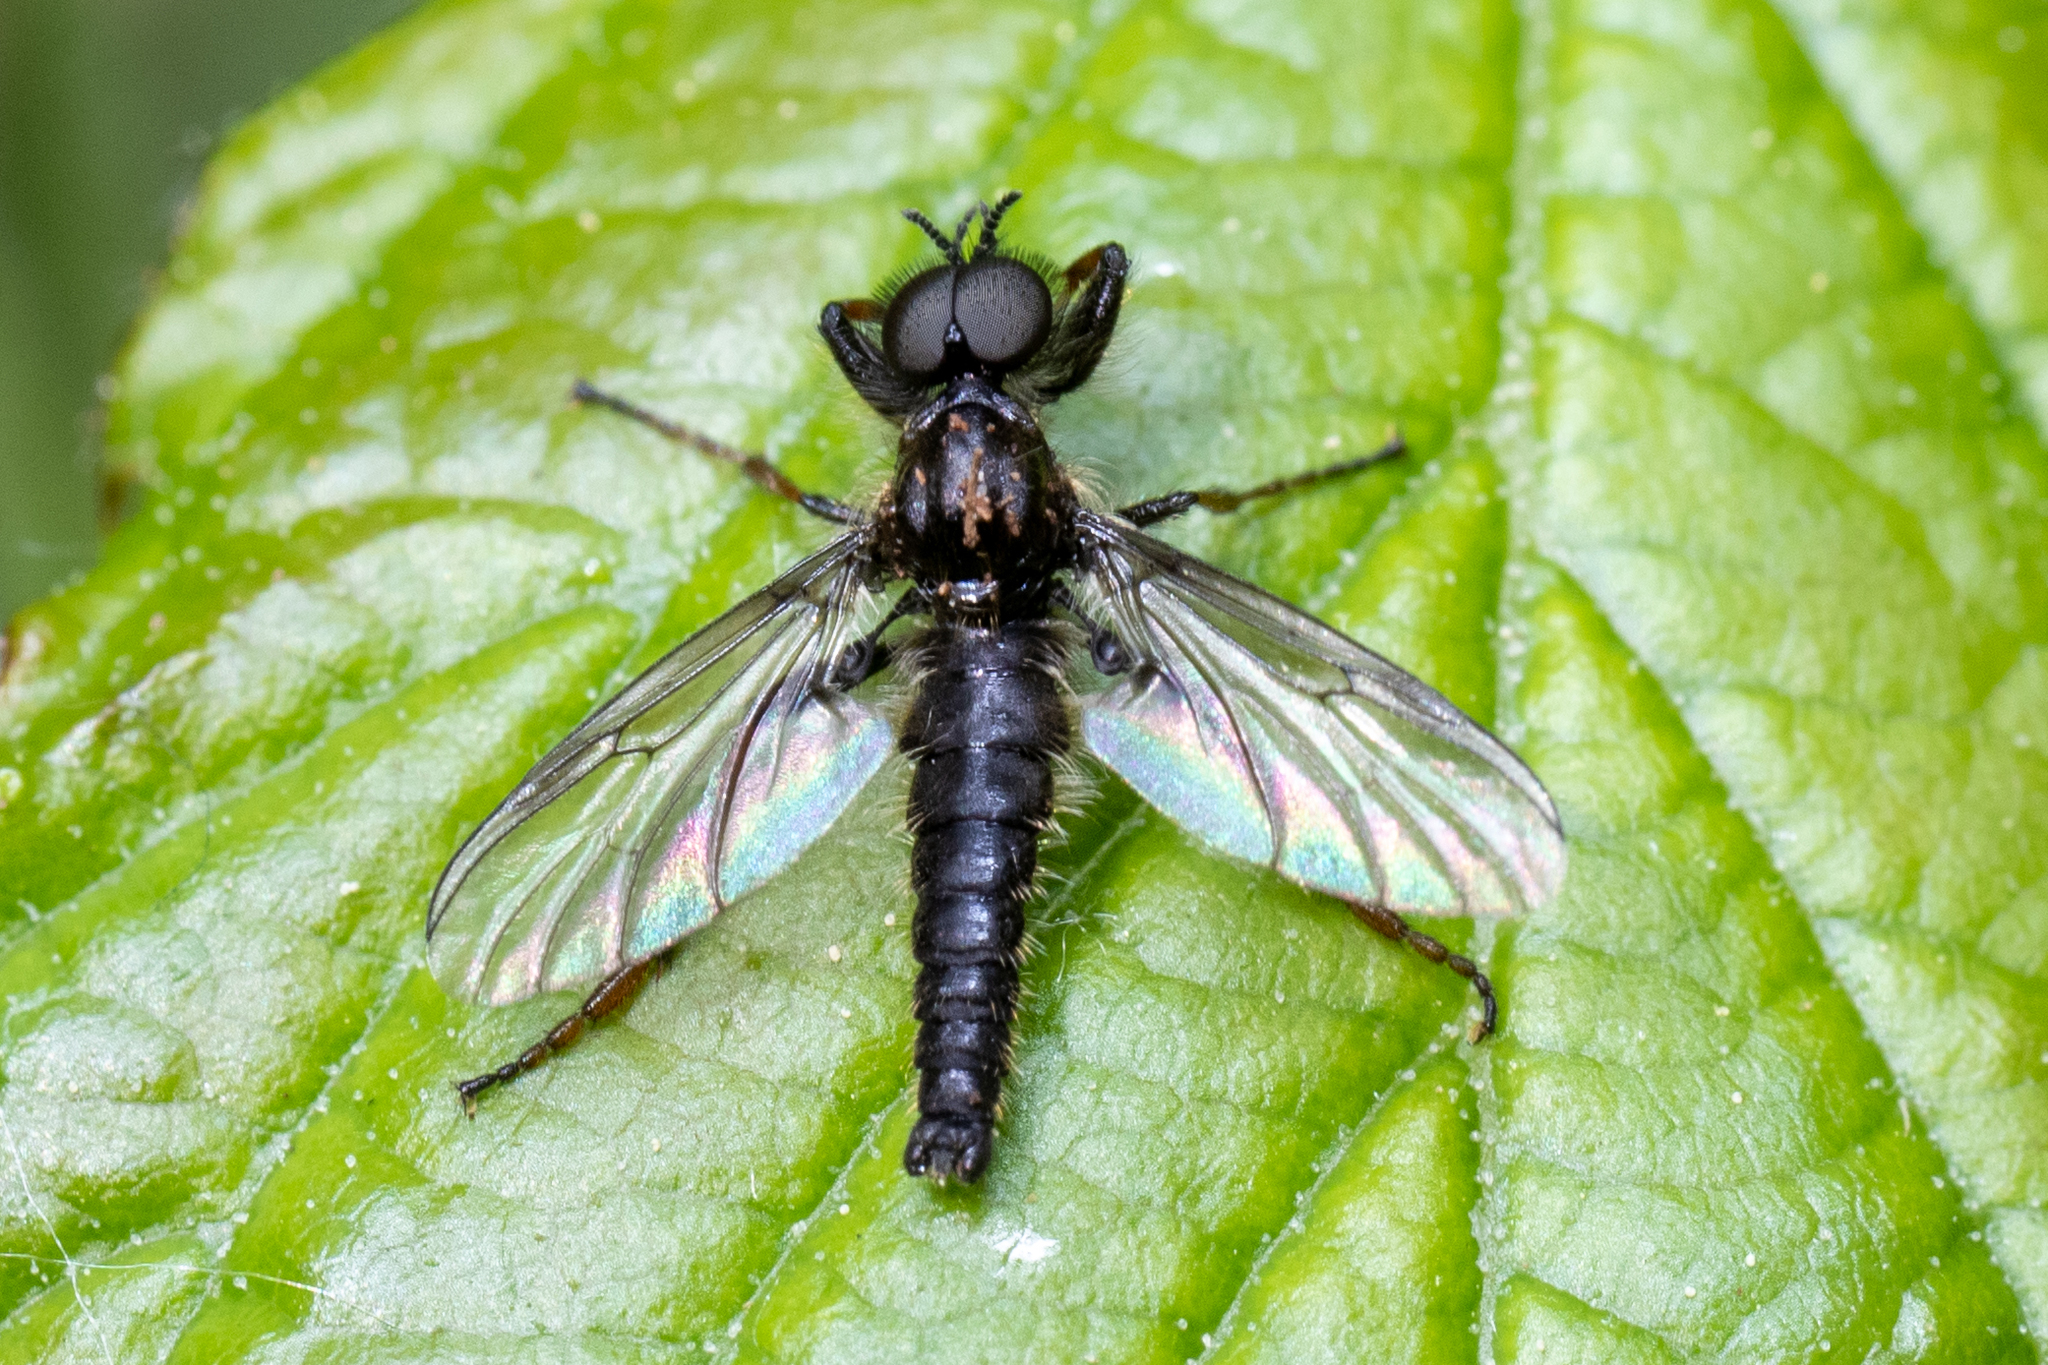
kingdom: Animalia
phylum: Arthropoda
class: Insecta
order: Diptera
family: Bibionidae
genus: Bibio
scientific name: Bibio lanigerus
